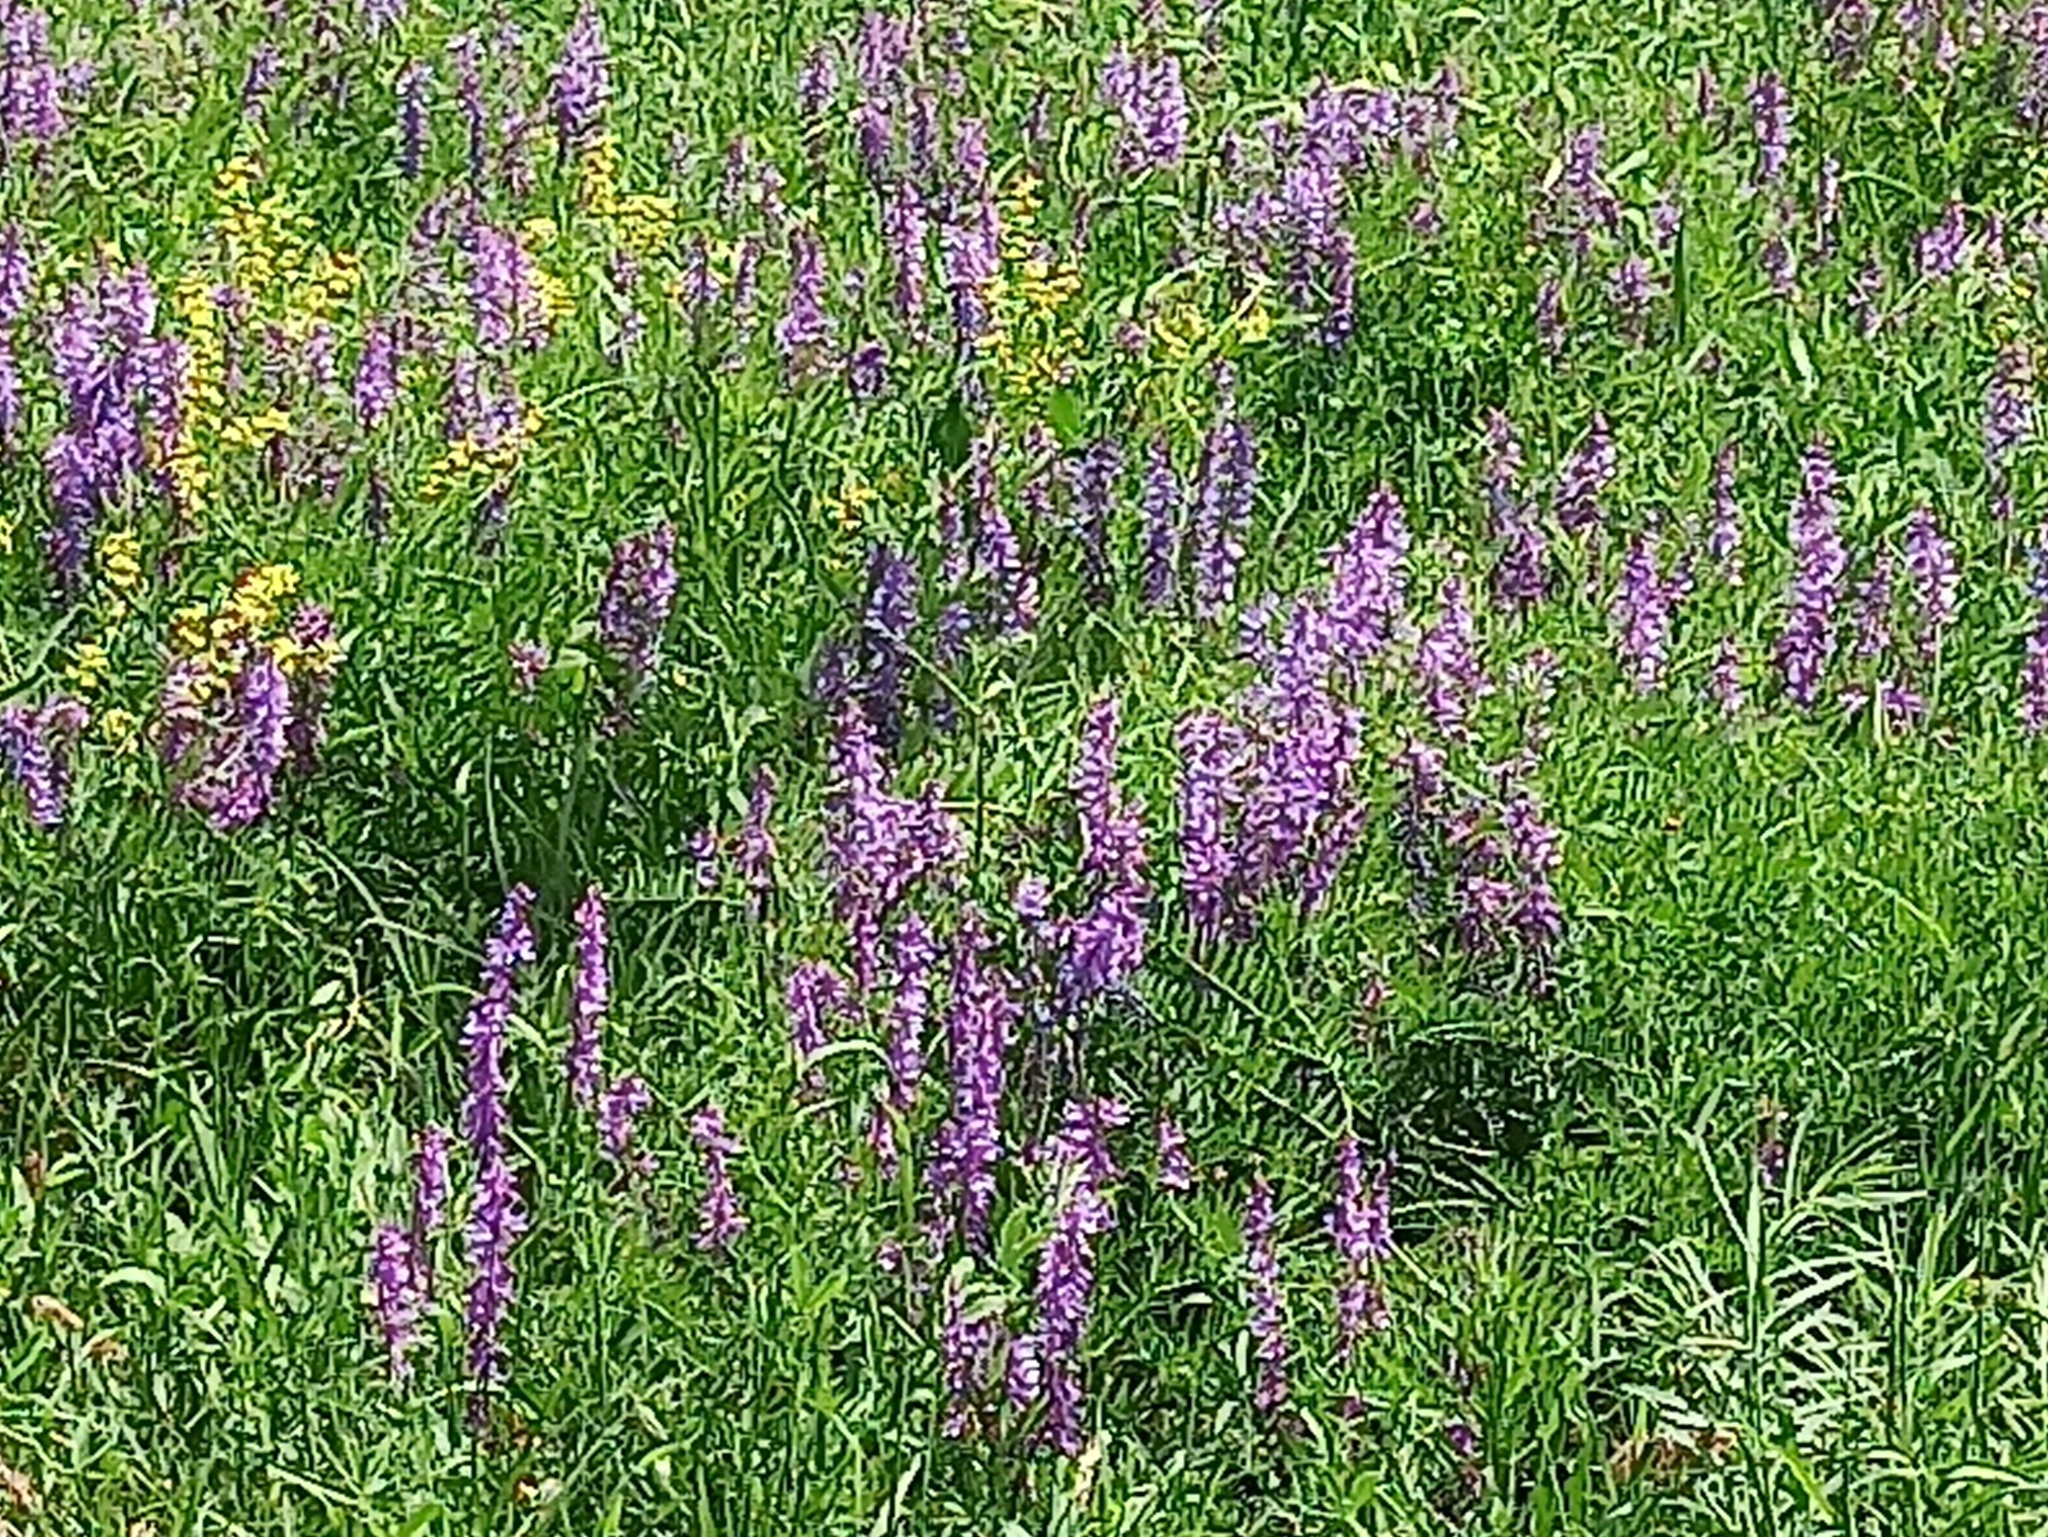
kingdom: Plantae
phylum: Tracheophyta
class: Magnoliopsida
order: Fabales
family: Fabaceae
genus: Vicia
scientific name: Vicia tenuifolia
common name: Fine-leaved vetch
